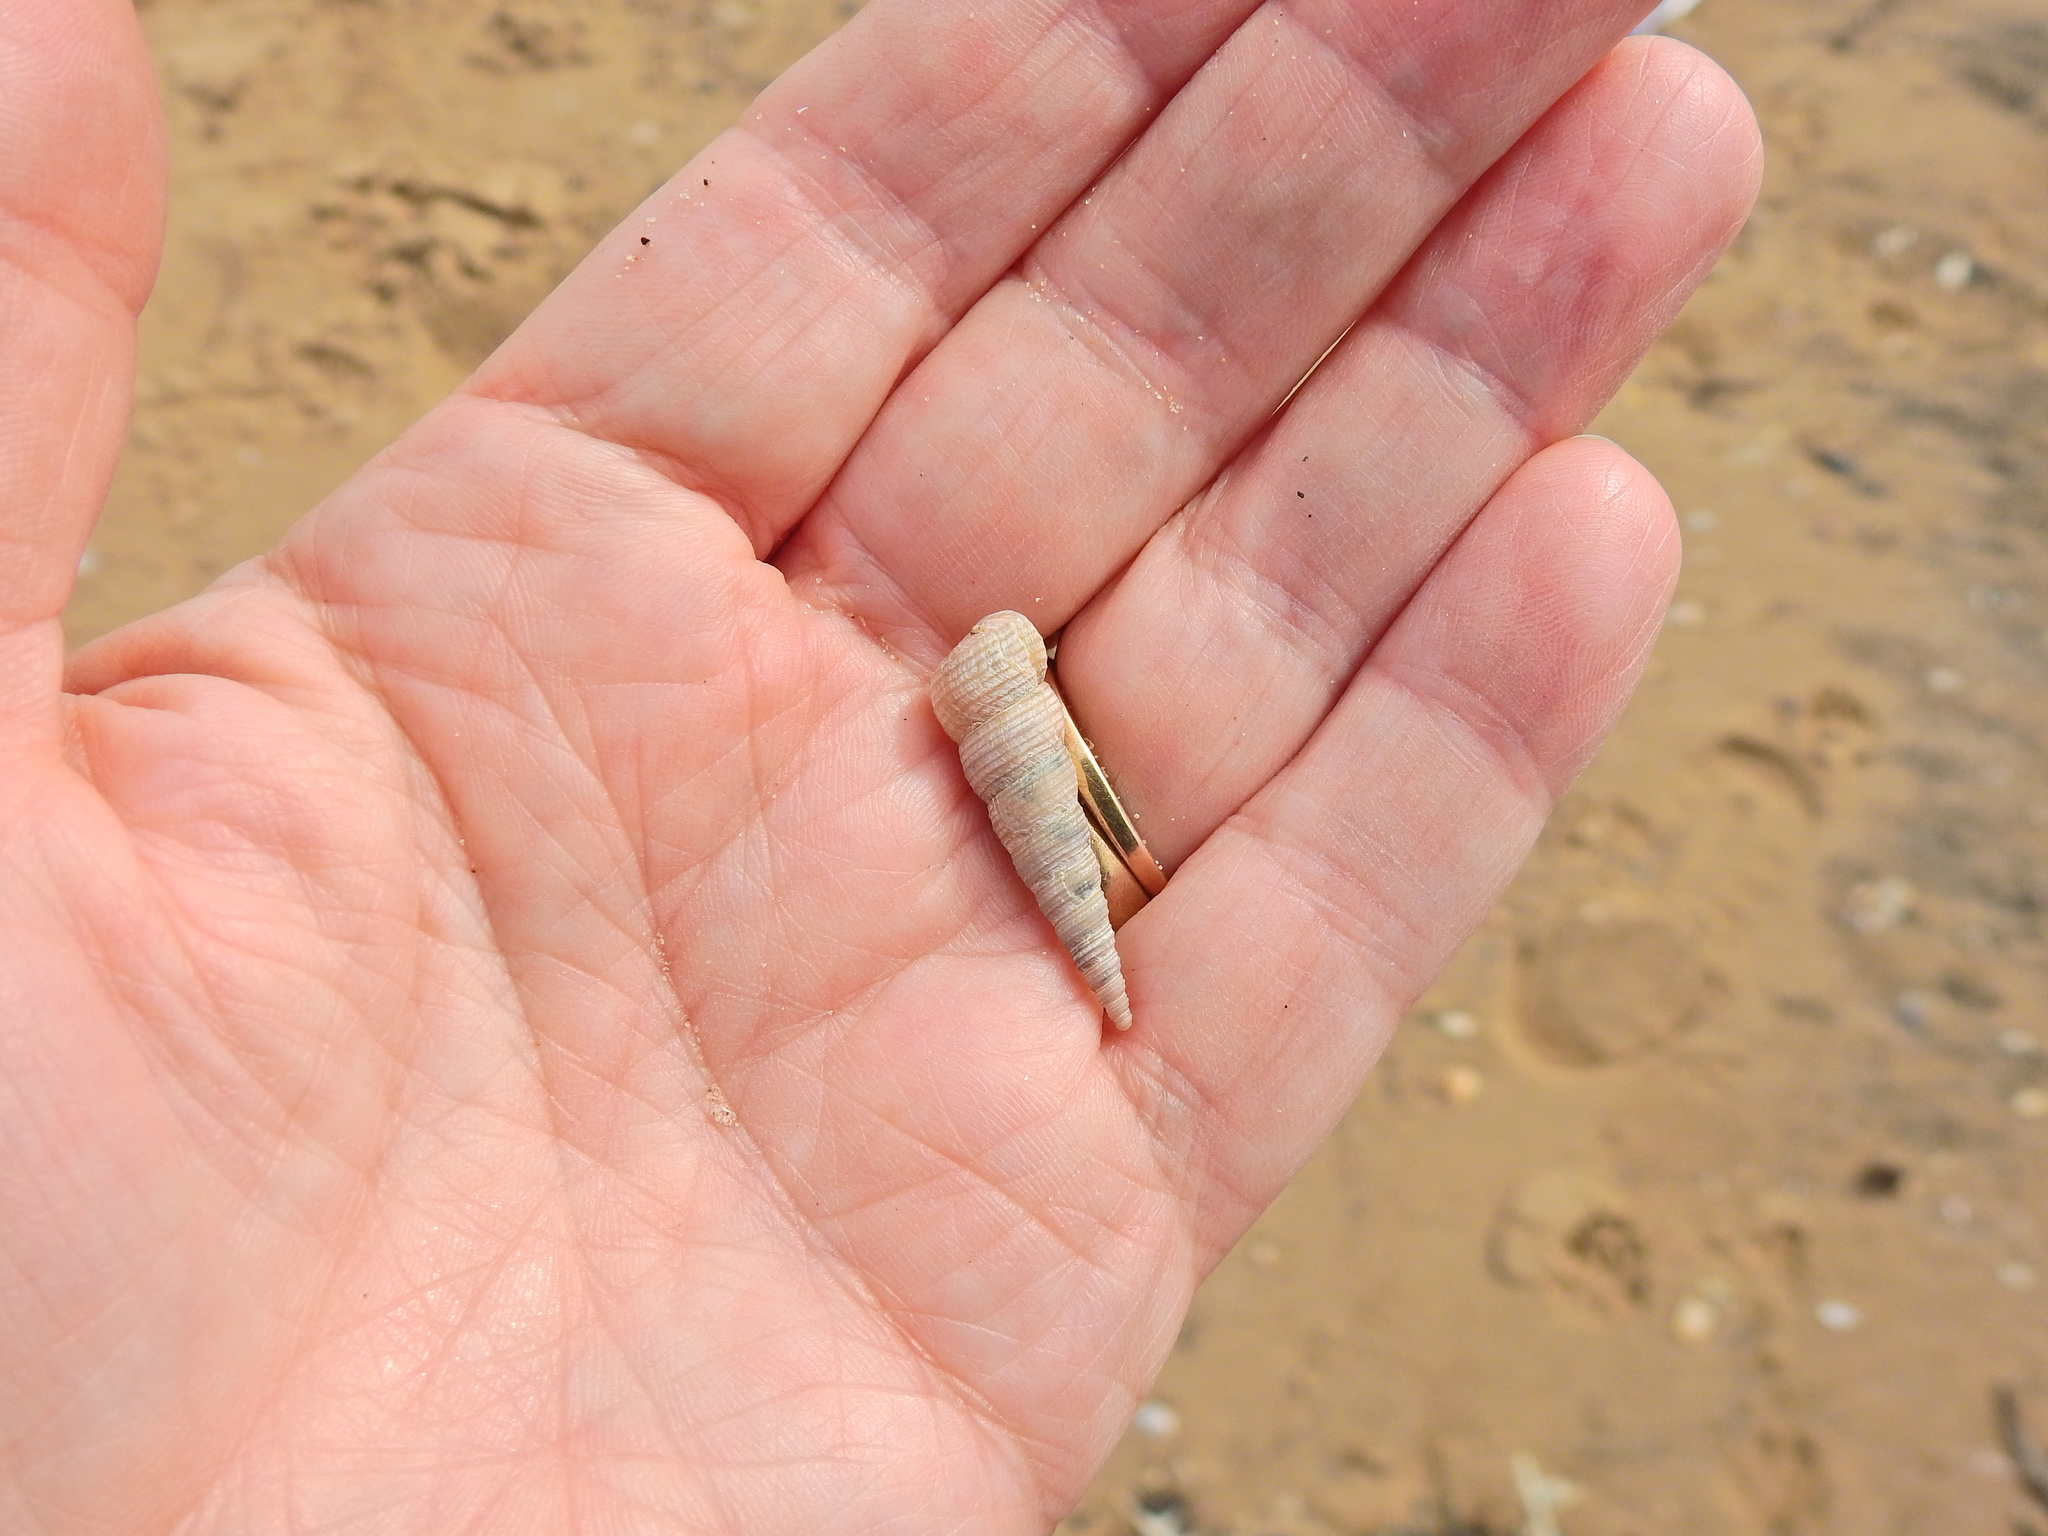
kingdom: Animalia
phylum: Mollusca
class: Gastropoda
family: Turritellidae
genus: Turritellinella
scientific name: Turritellinella tricarinata
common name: Auger shell
